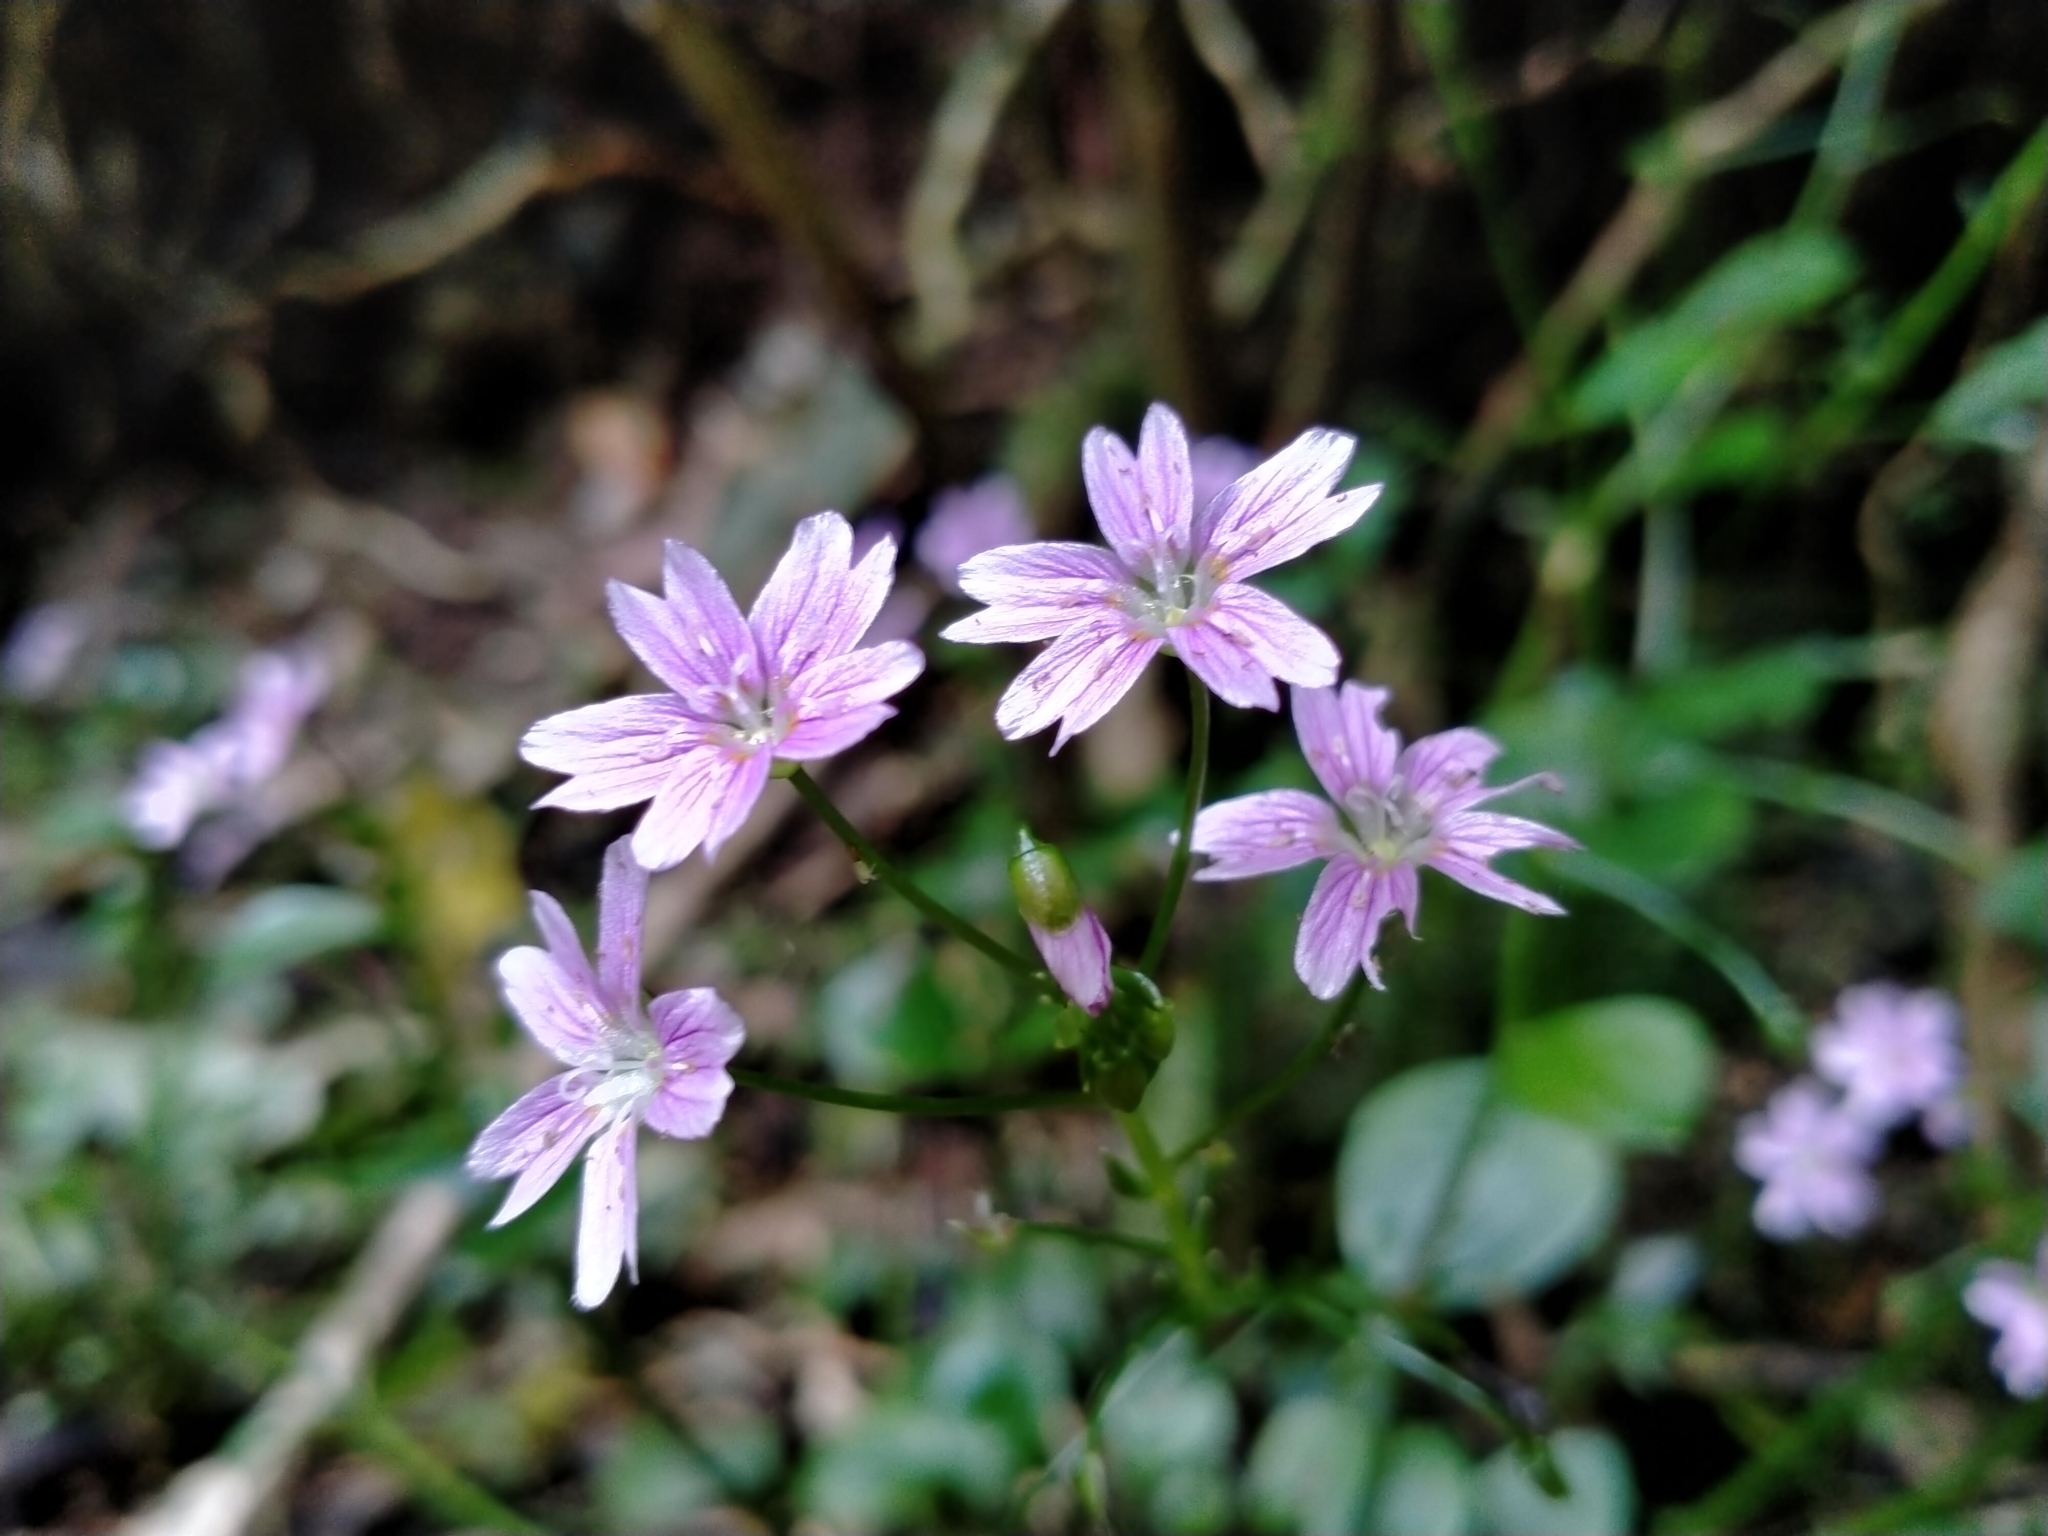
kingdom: Plantae
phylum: Tracheophyta
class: Magnoliopsida
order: Caryophyllales
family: Montiaceae
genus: Claytonia
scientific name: Claytonia sibirica
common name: Pink purslane
